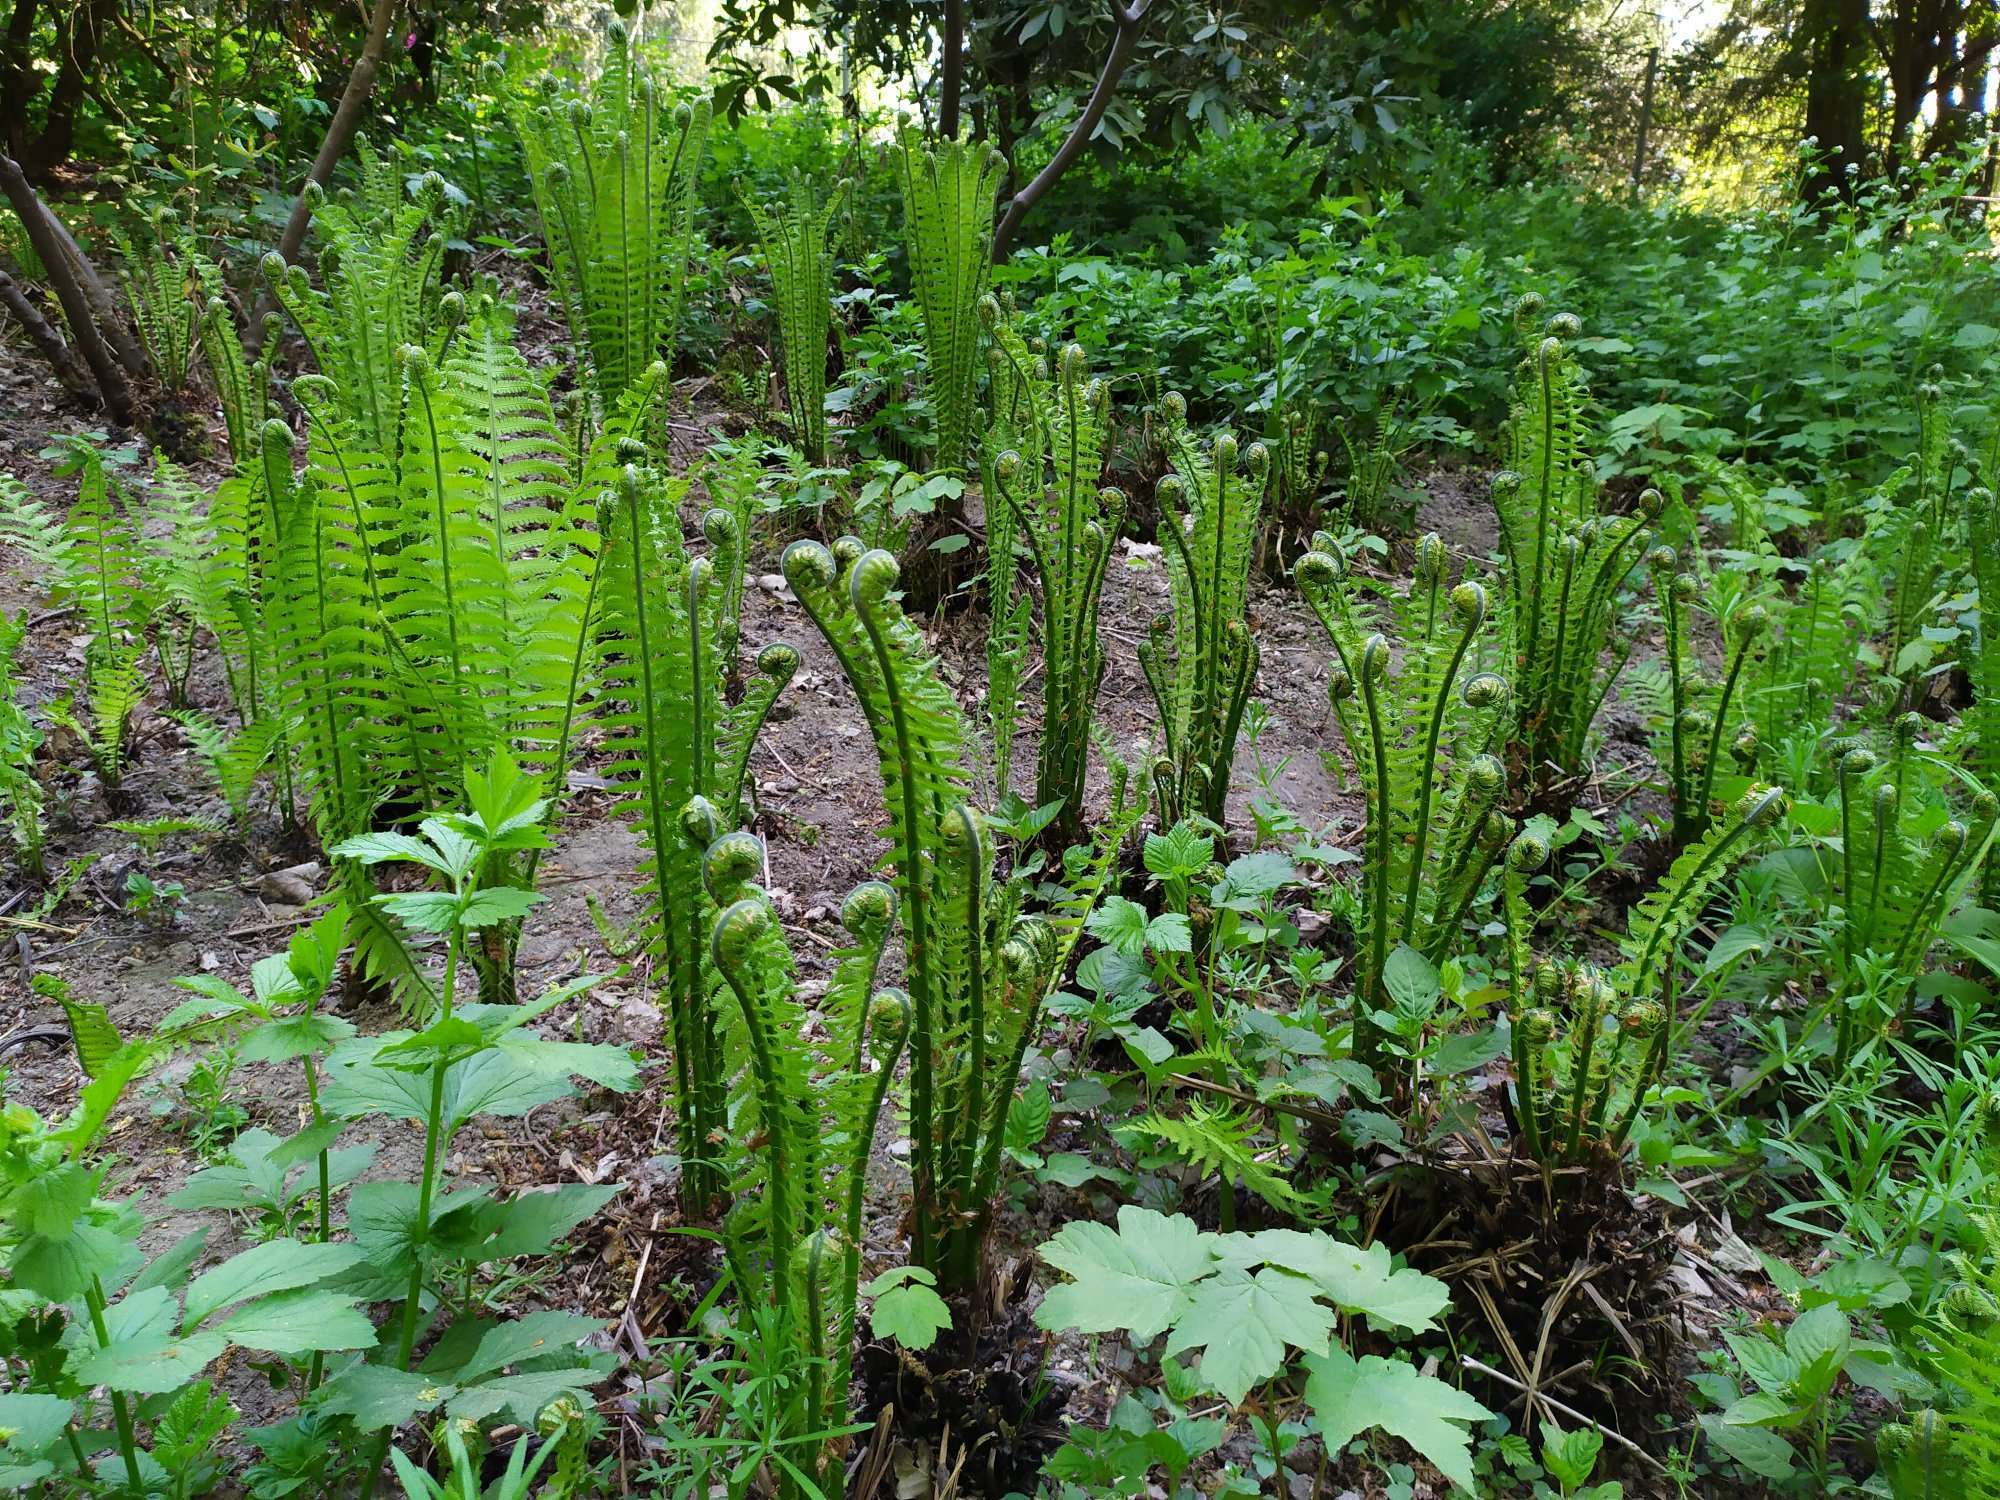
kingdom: Plantae
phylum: Tracheophyta
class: Polypodiopsida
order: Polypodiales
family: Onocleaceae
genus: Matteuccia
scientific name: Matteuccia struthiopteris
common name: Ostrich fern
